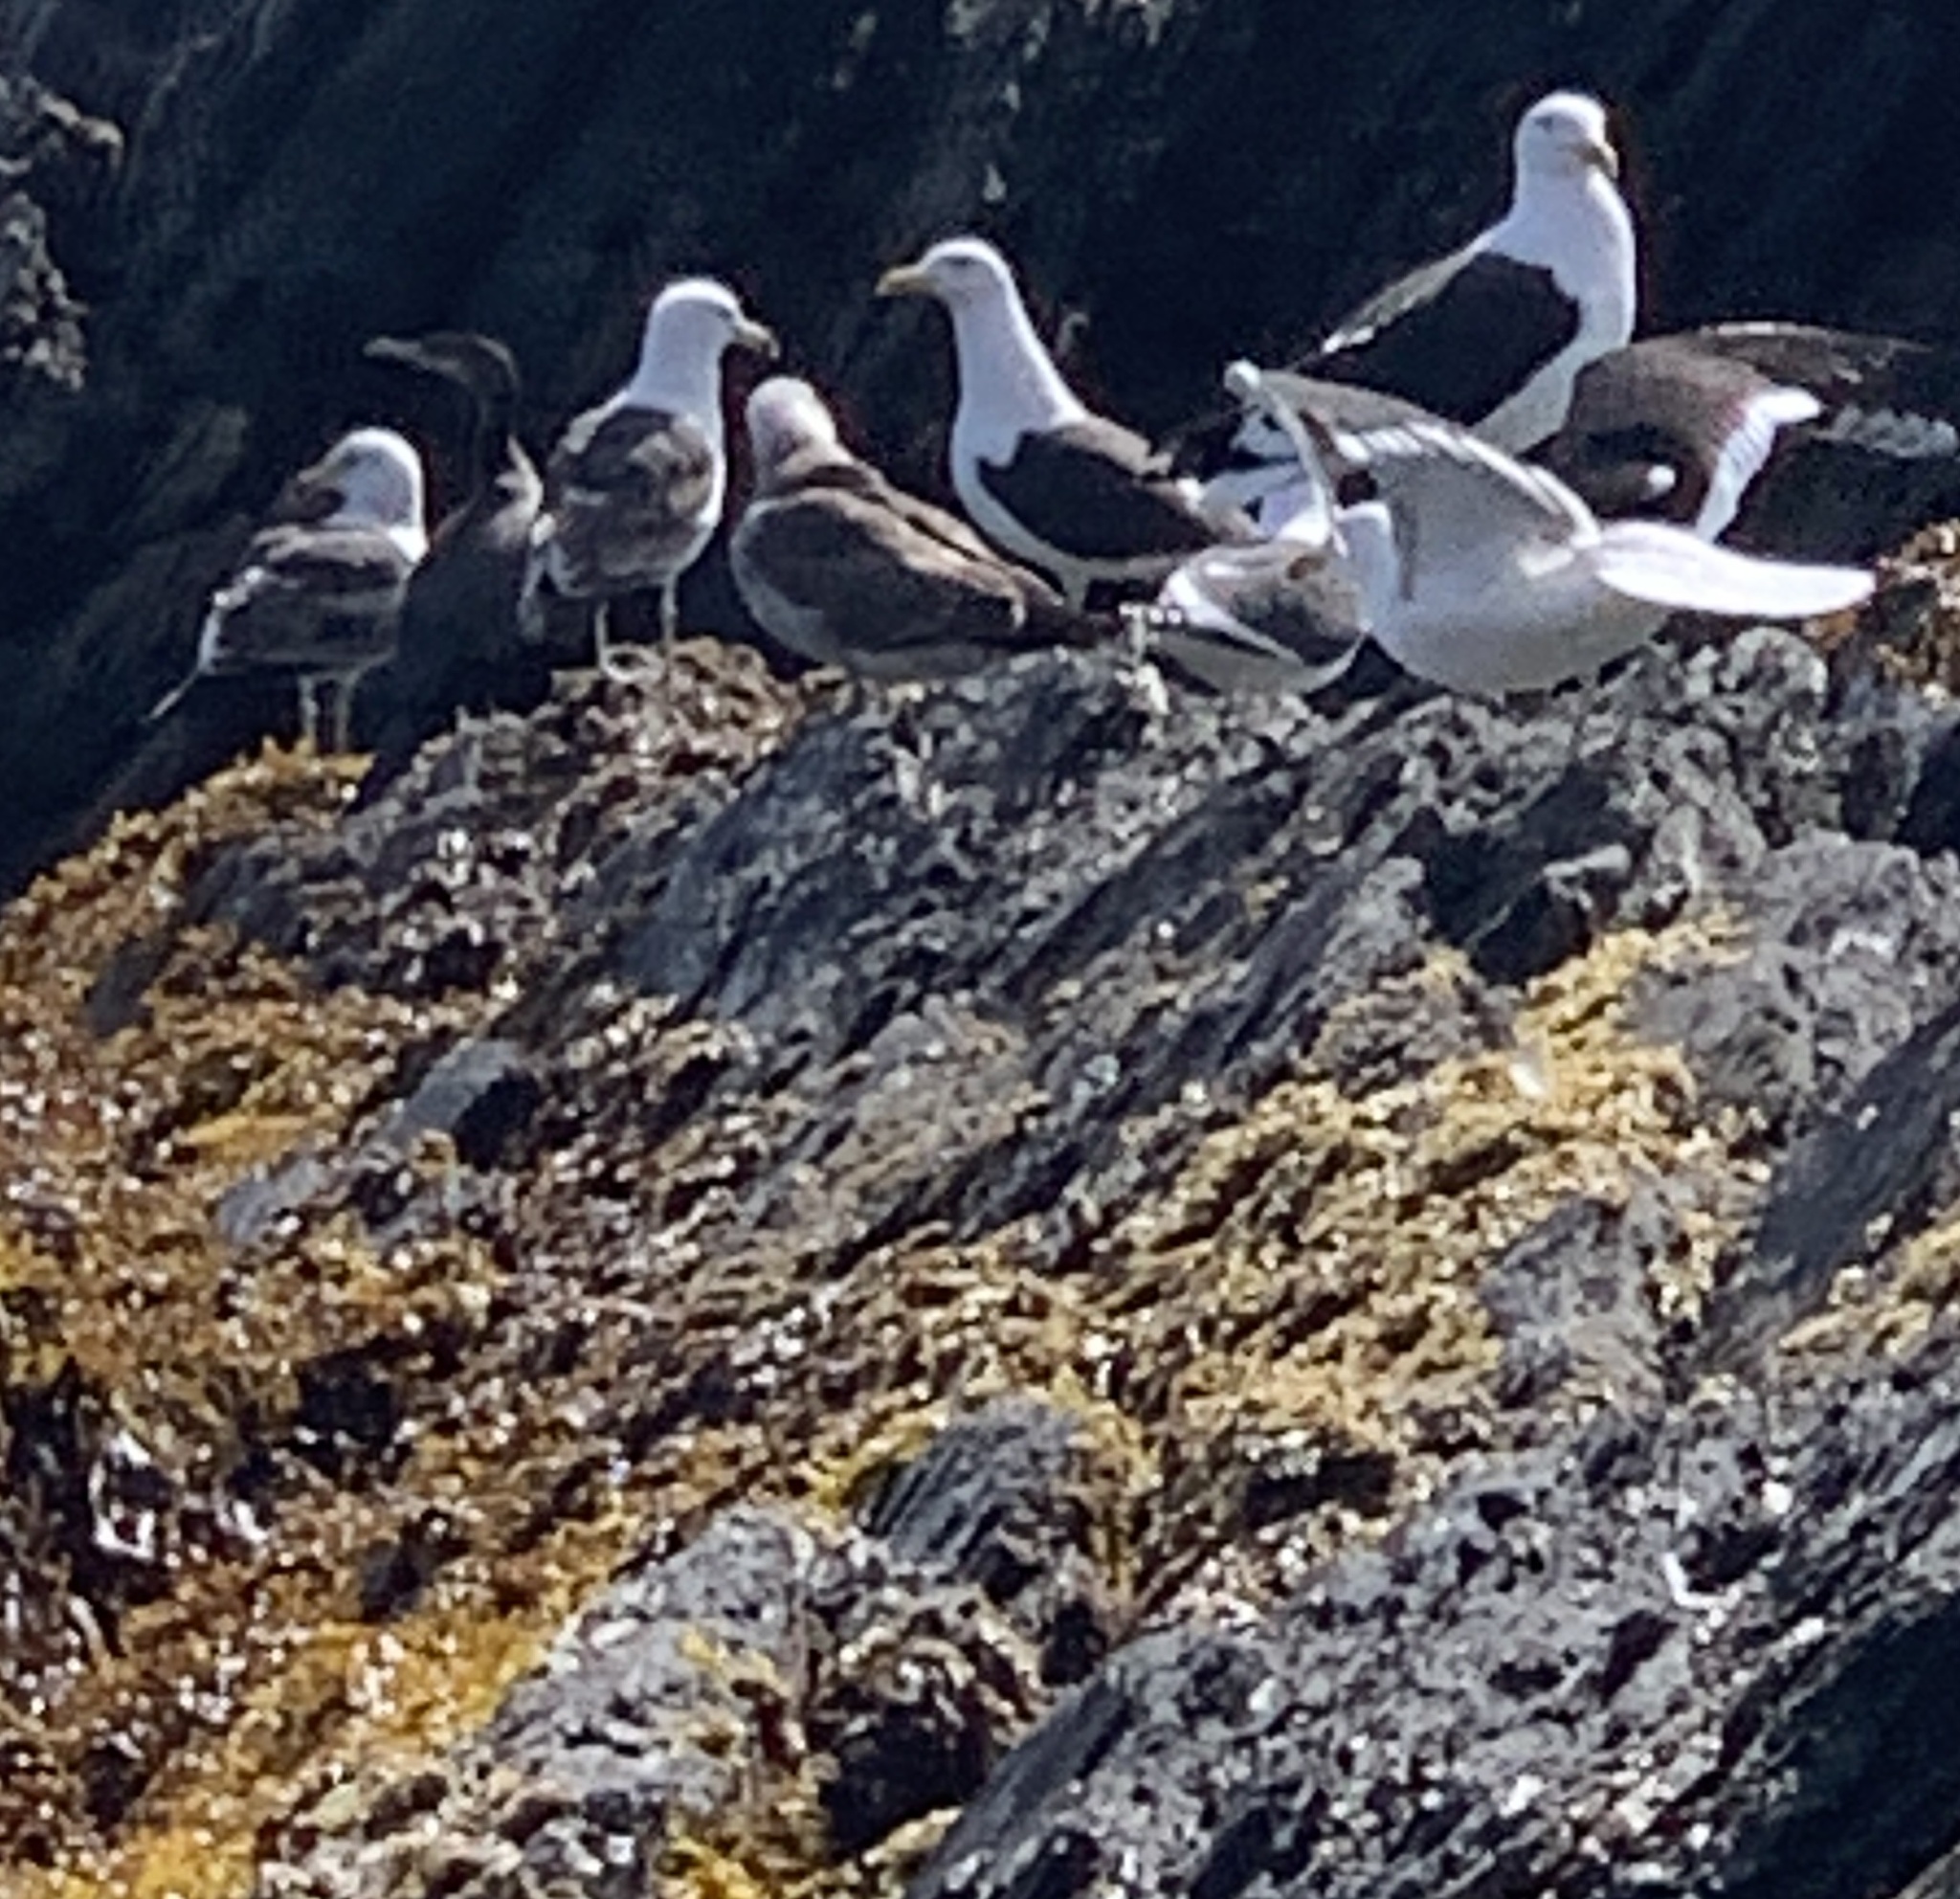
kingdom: Animalia
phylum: Chordata
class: Aves
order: Charadriiformes
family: Laridae
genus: Larus
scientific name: Larus dominicanus
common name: Kelp gull
